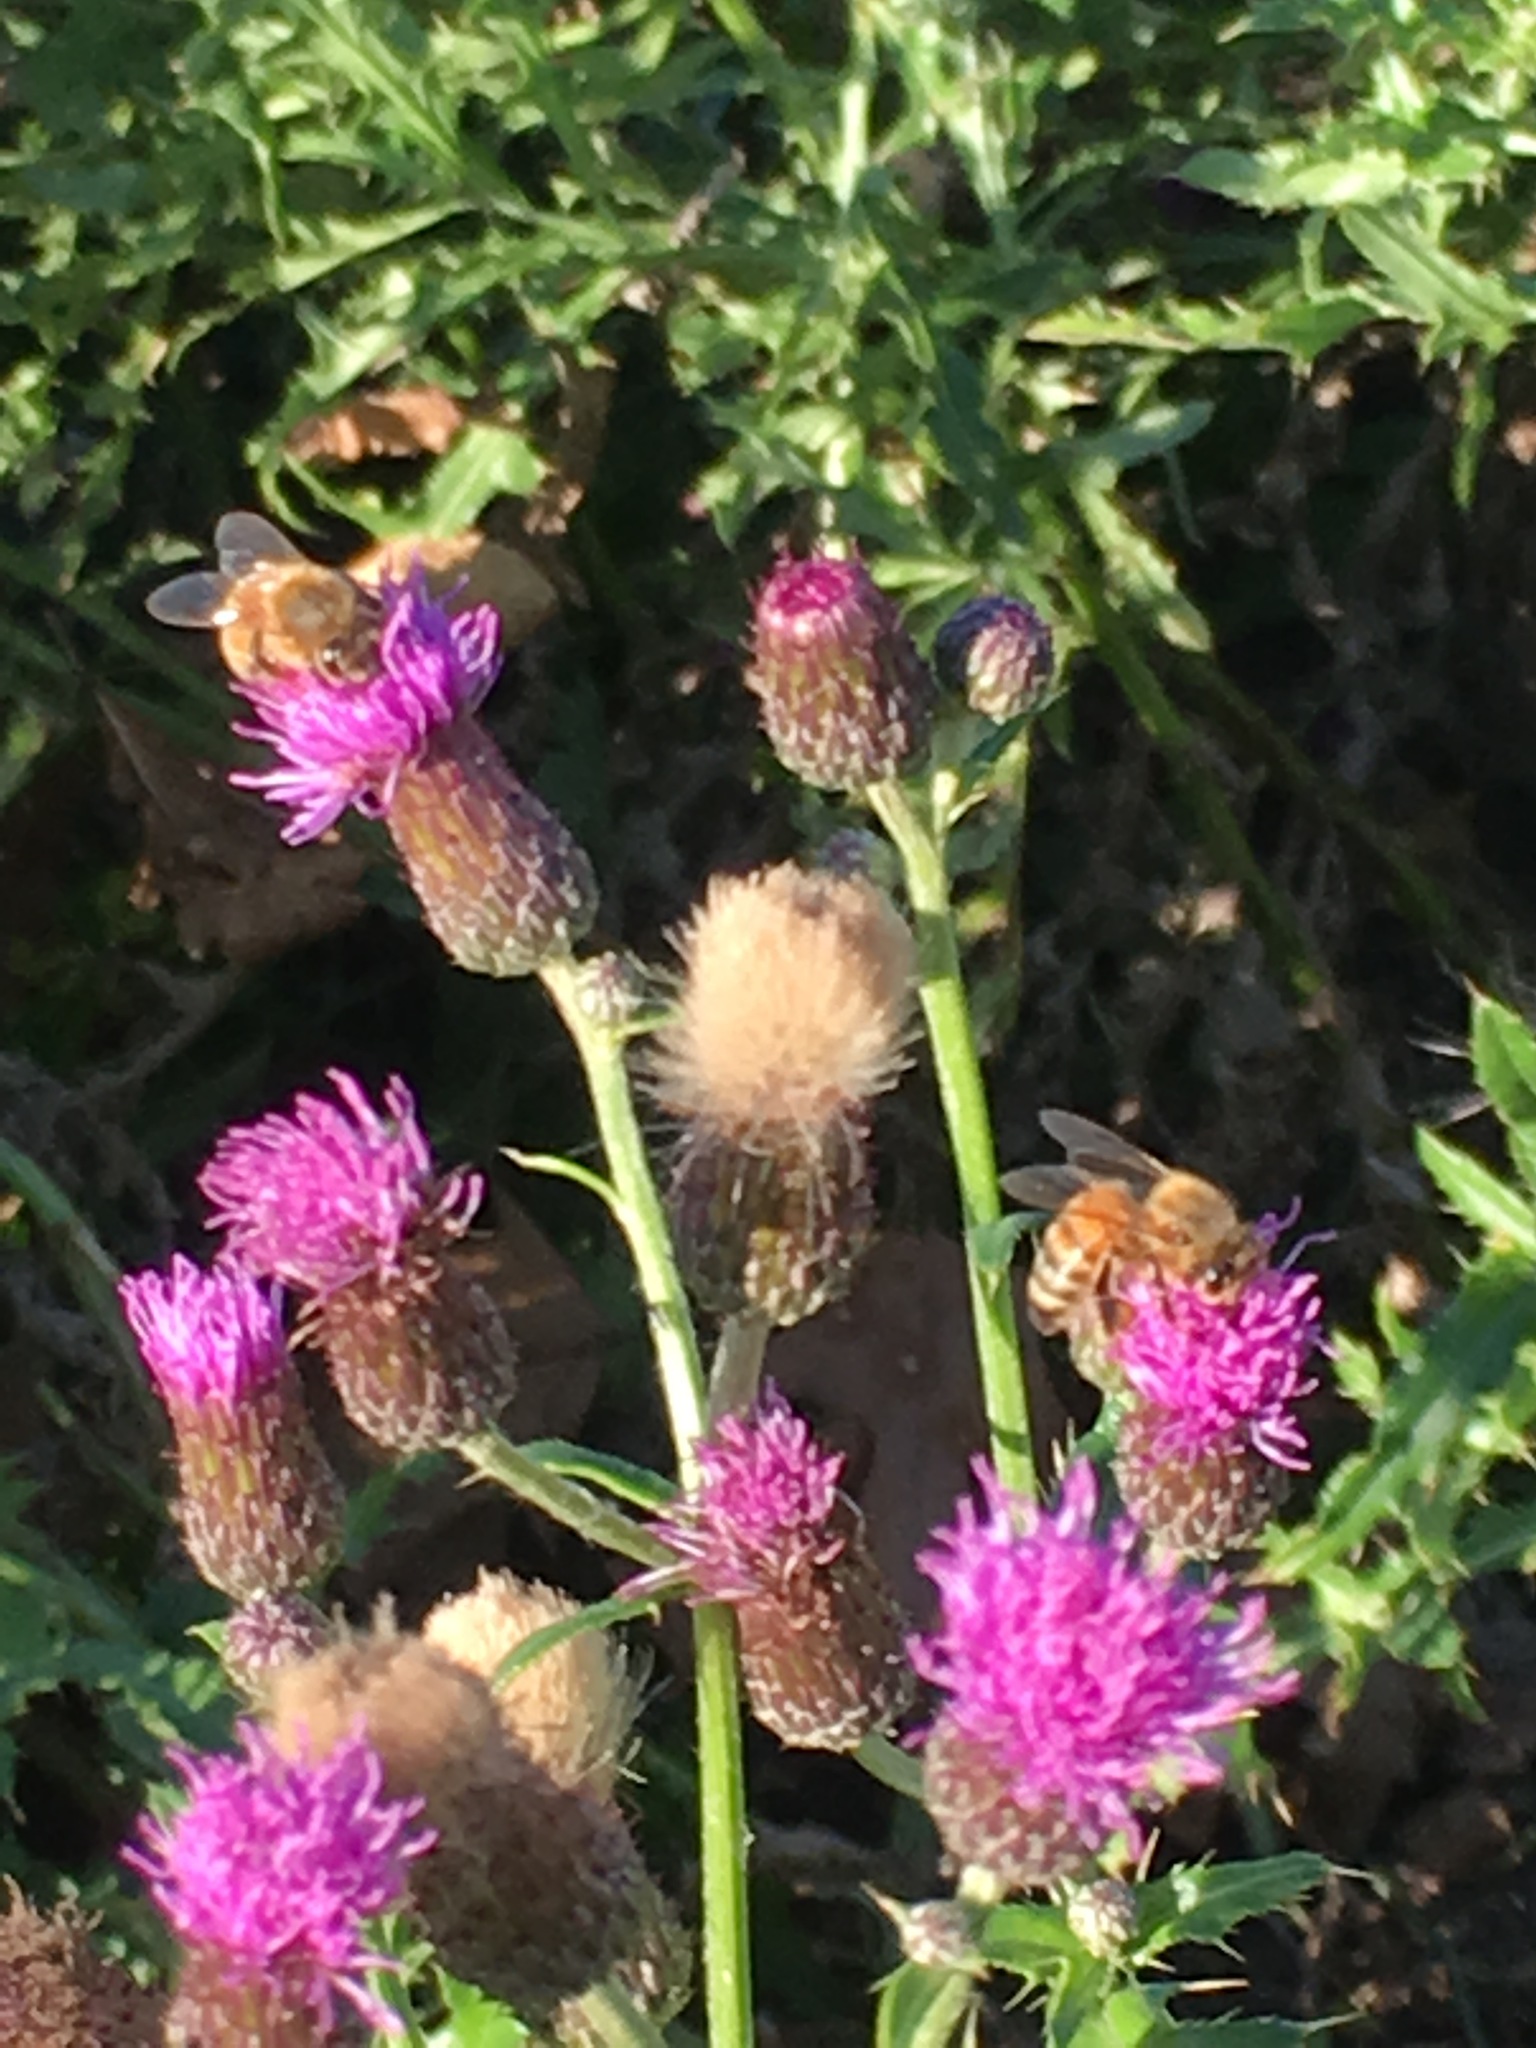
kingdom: Plantae
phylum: Tracheophyta
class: Magnoliopsida
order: Asterales
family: Asteraceae
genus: Cirsium
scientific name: Cirsium arvense
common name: Creeping thistle
